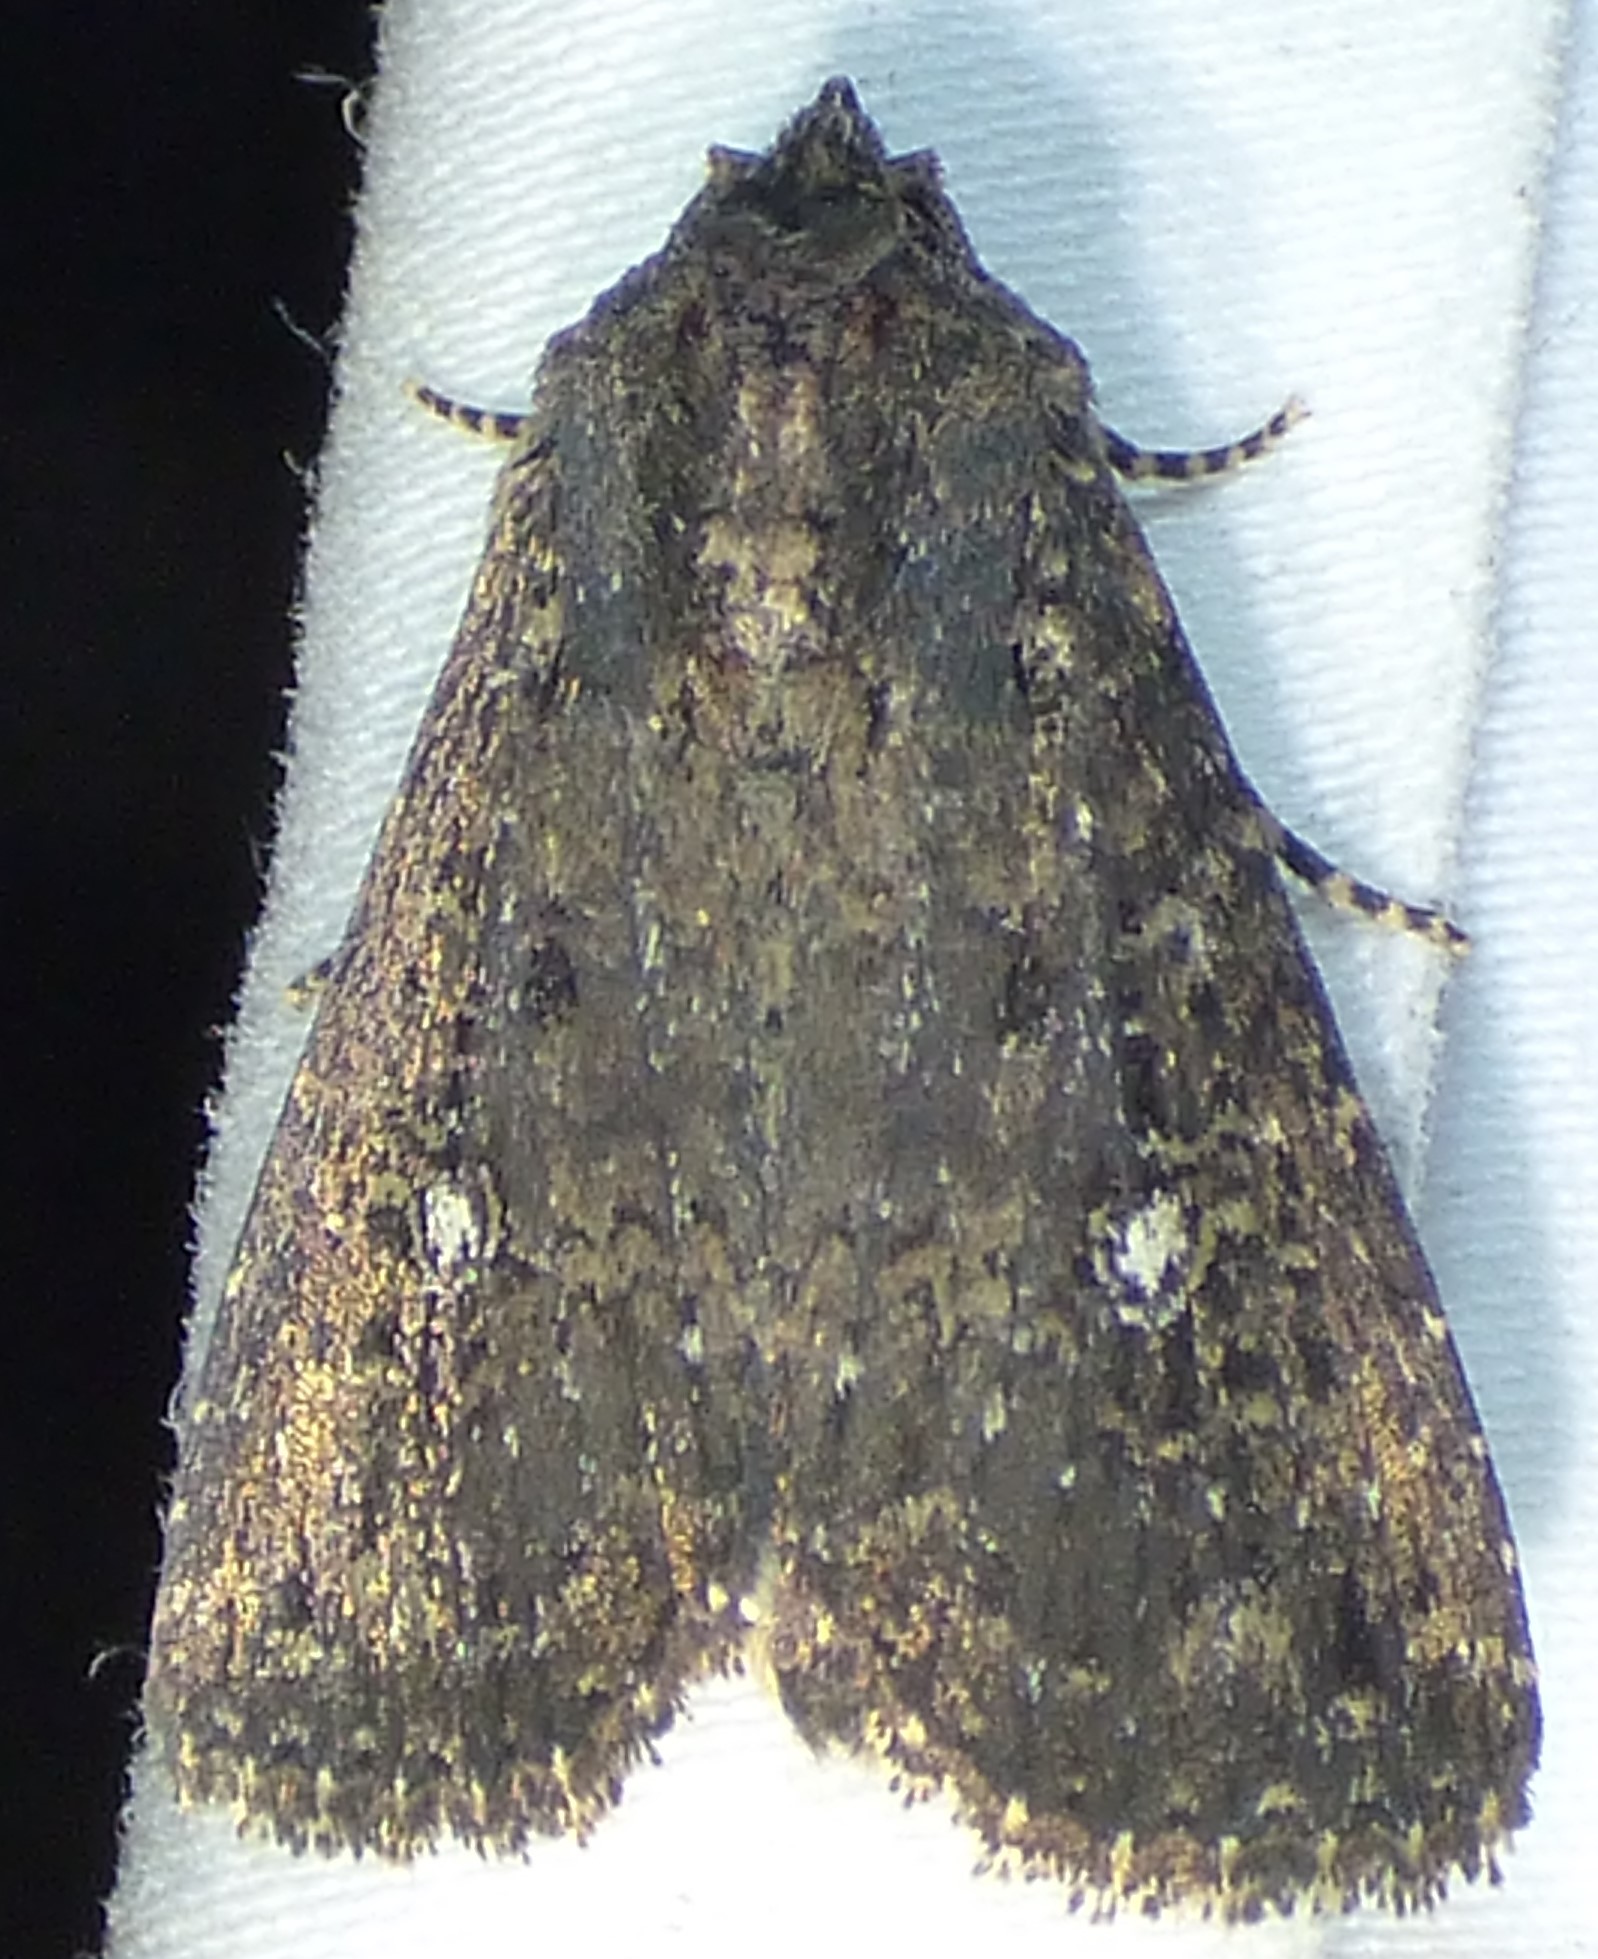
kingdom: Animalia
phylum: Arthropoda
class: Insecta
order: Lepidoptera
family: Noctuidae
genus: Condica
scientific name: Condica vecors
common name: Dusky groundling
